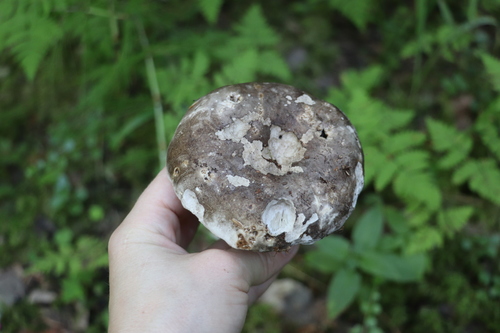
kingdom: Fungi
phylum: Basidiomycota
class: Agaricomycetes
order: Russulales
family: Russulaceae
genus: Russula
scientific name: Russula albonigra
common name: Menthol brittlegill
